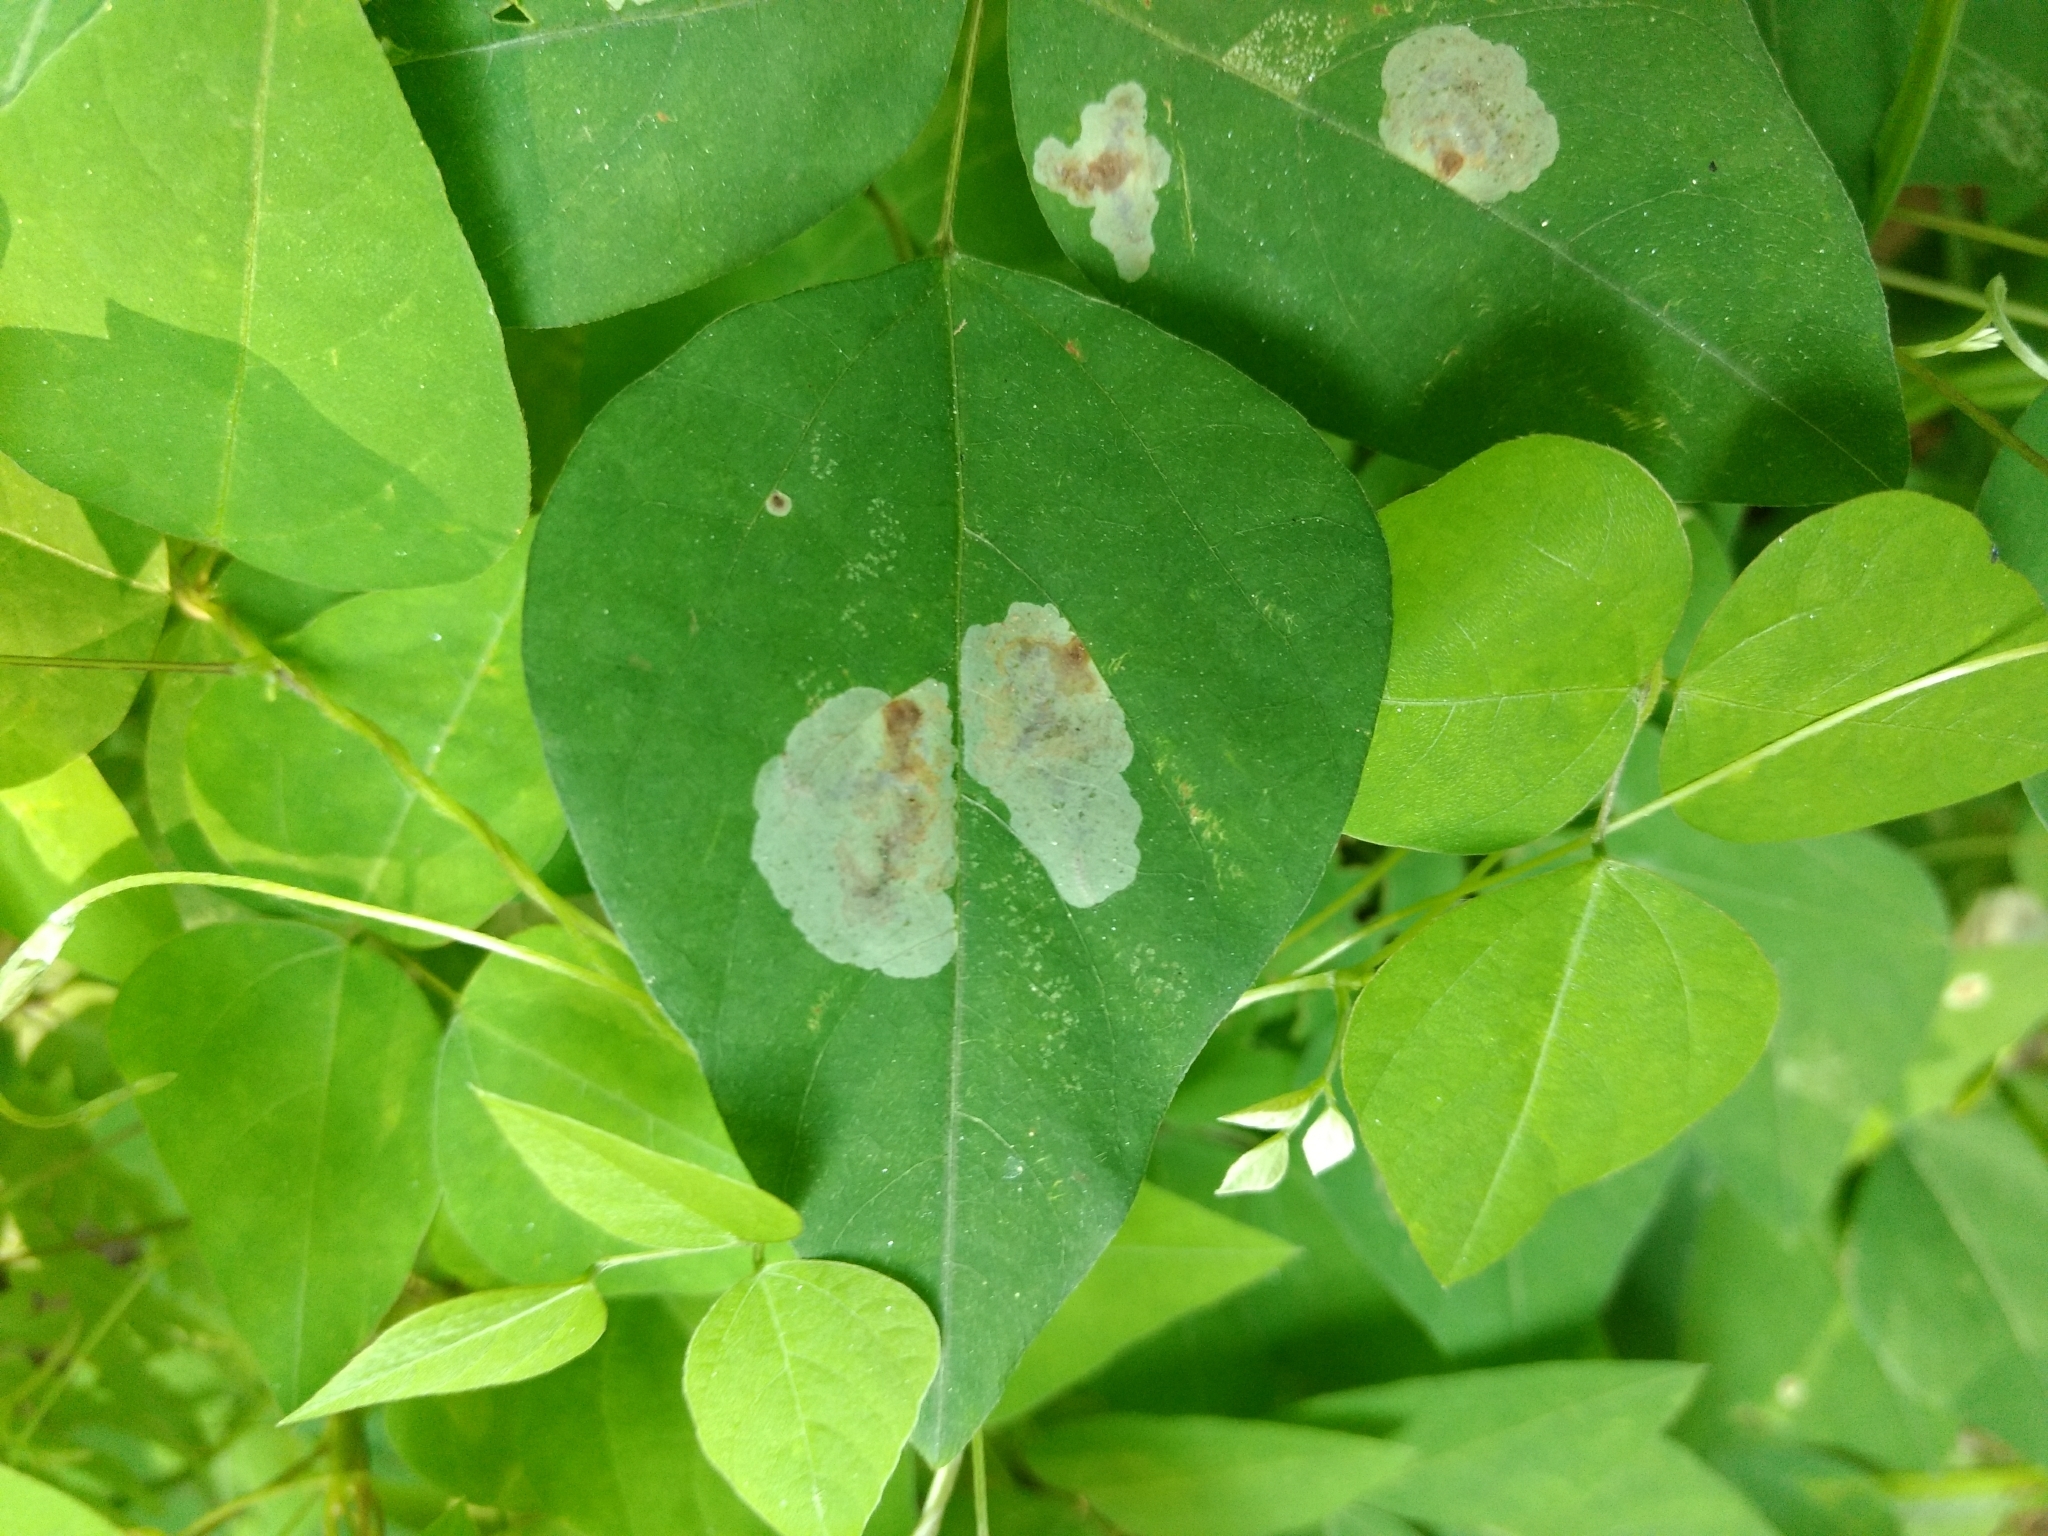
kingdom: Animalia
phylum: Arthropoda
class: Insecta
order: Lepidoptera
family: Gracillariidae
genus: Leucanthiza
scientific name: Leucanthiza amphicarpeaefoliella
